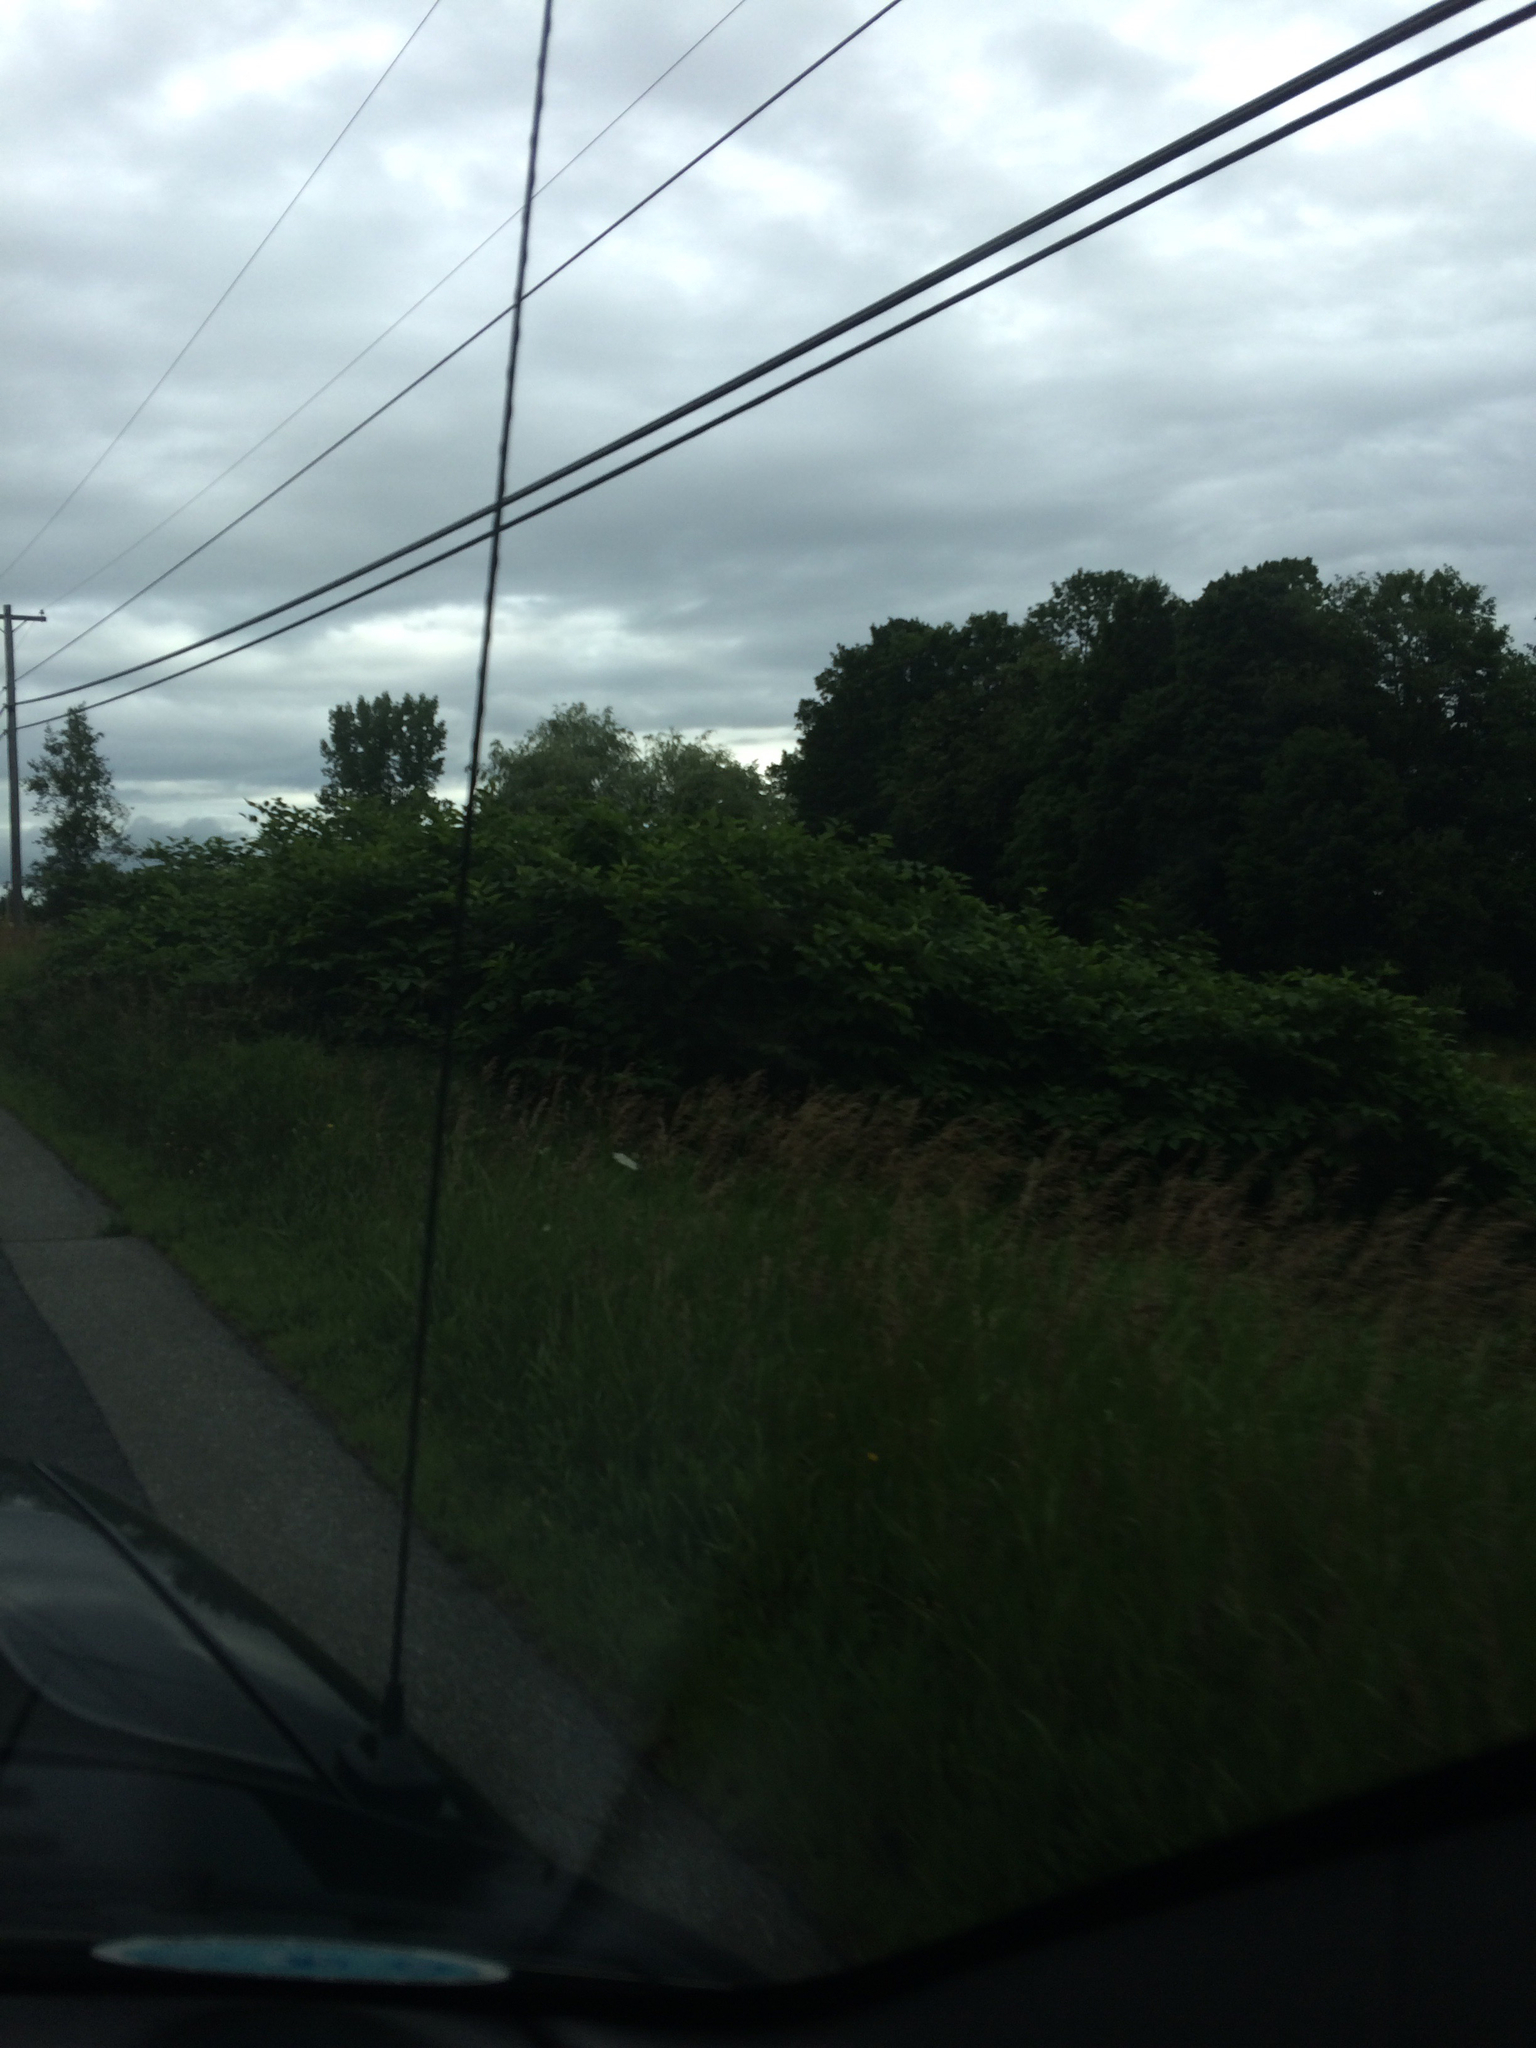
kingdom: Plantae
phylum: Tracheophyta
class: Magnoliopsida
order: Caryophyllales
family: Polygonaceae
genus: Reynoutria
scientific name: Reynoutria japonica
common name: Japanese knotweed
